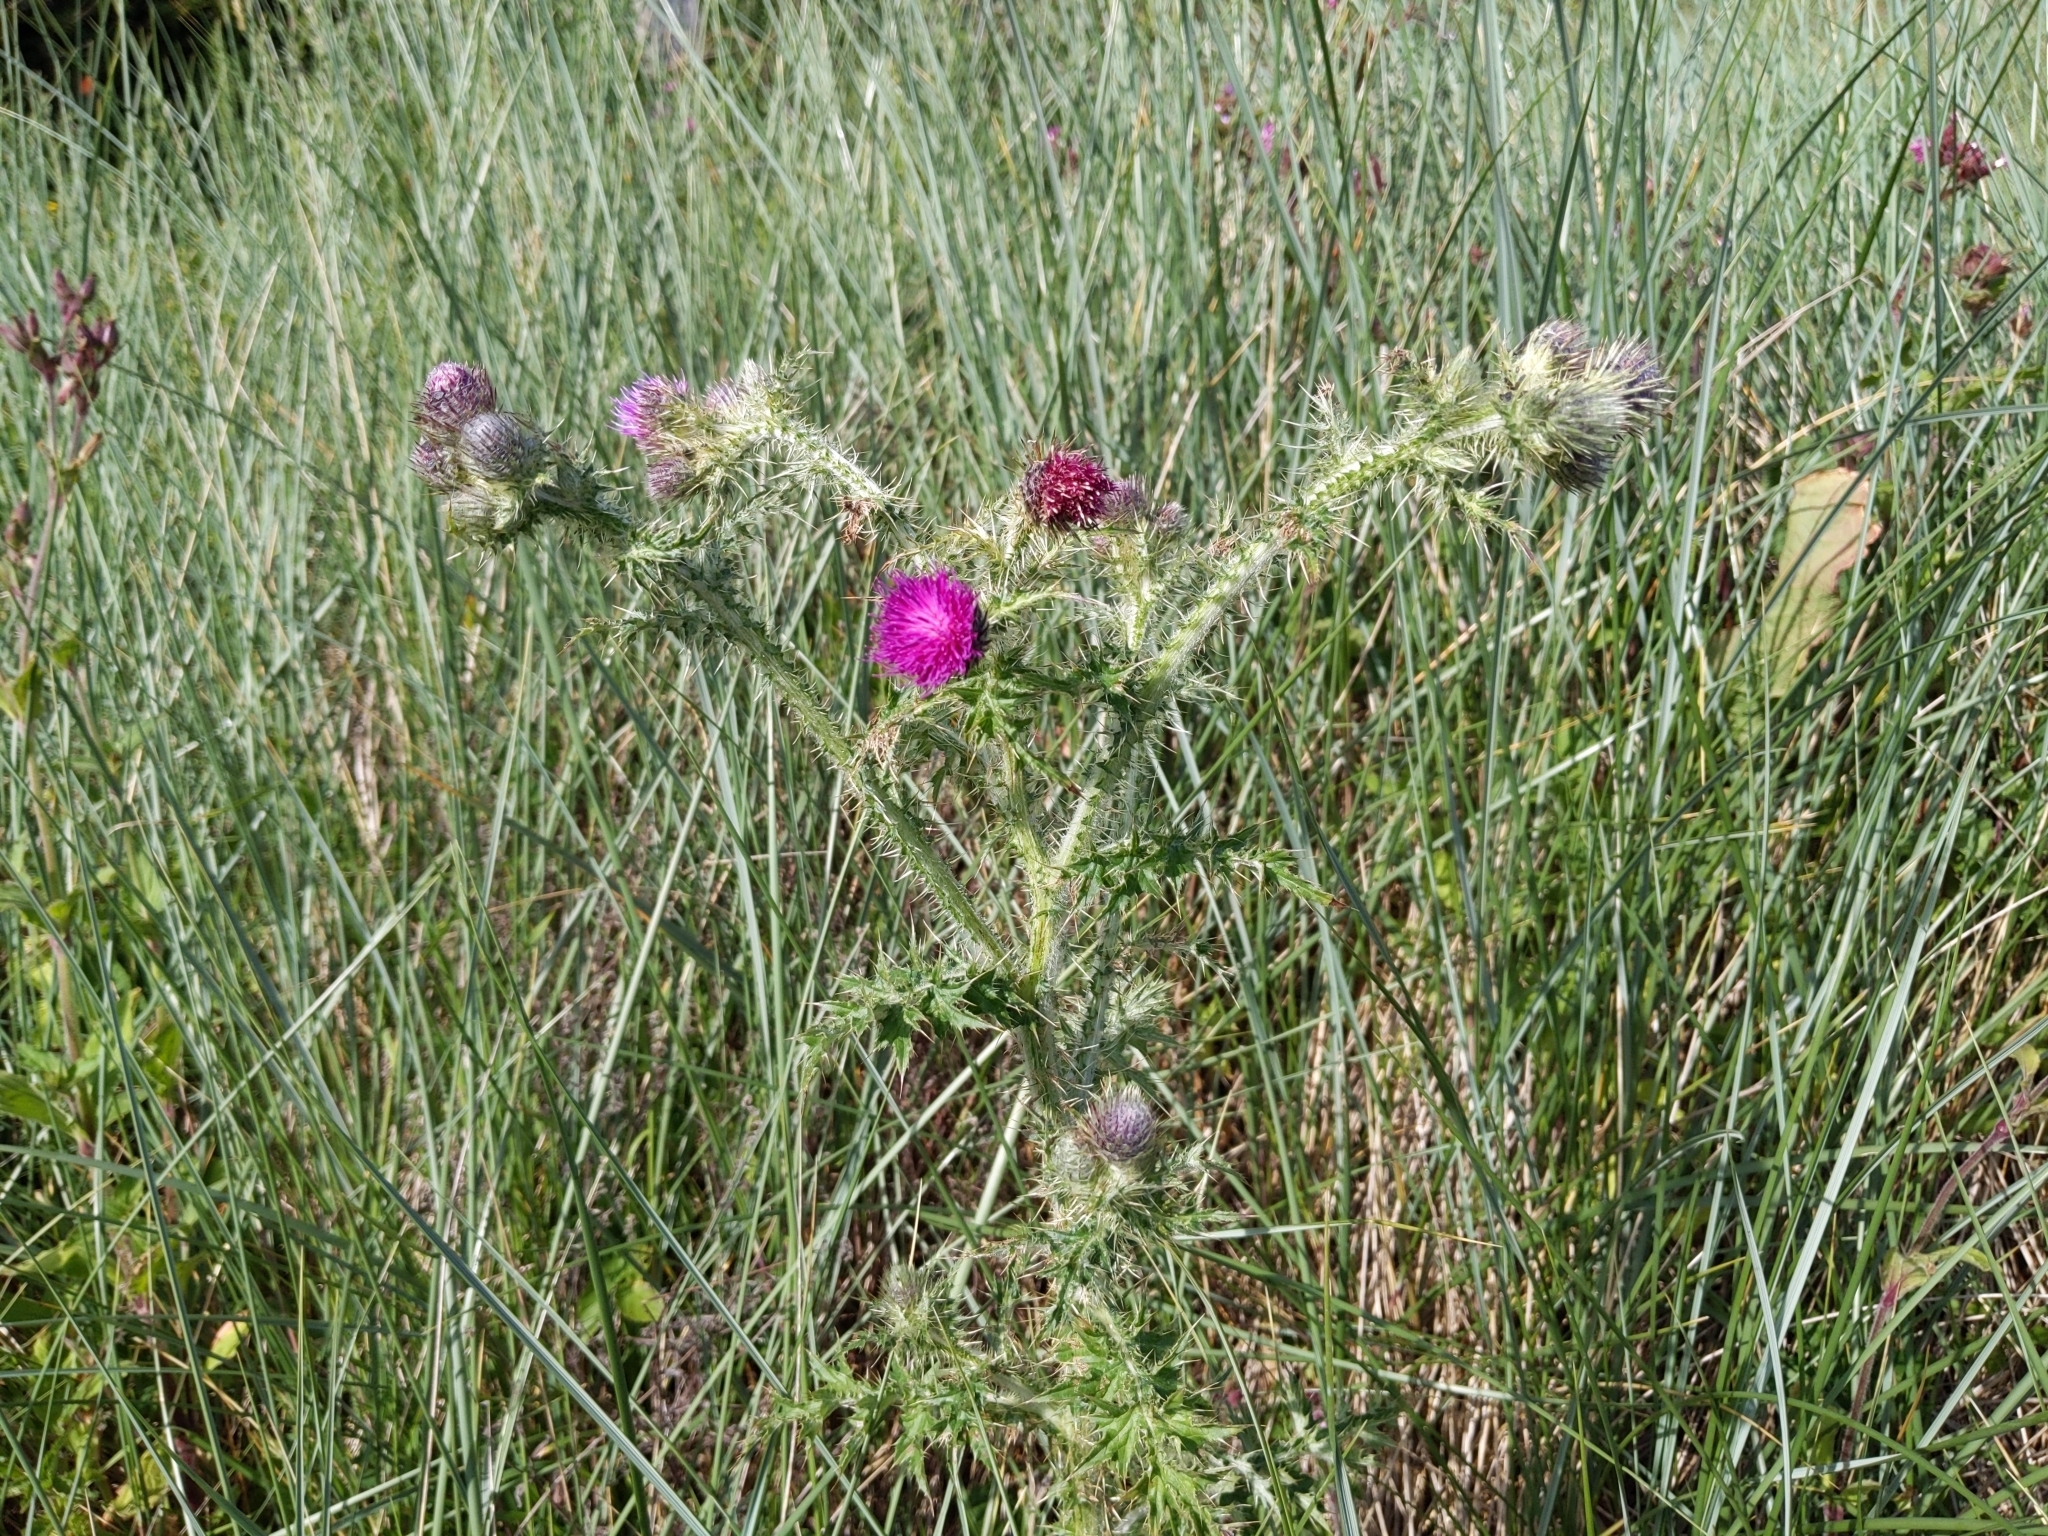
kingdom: Plantae
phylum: Tracheophyta
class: Magnoliopsida
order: Asterales
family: Asteraceae
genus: Carduus
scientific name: Carduus crispus
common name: Welted thistle
